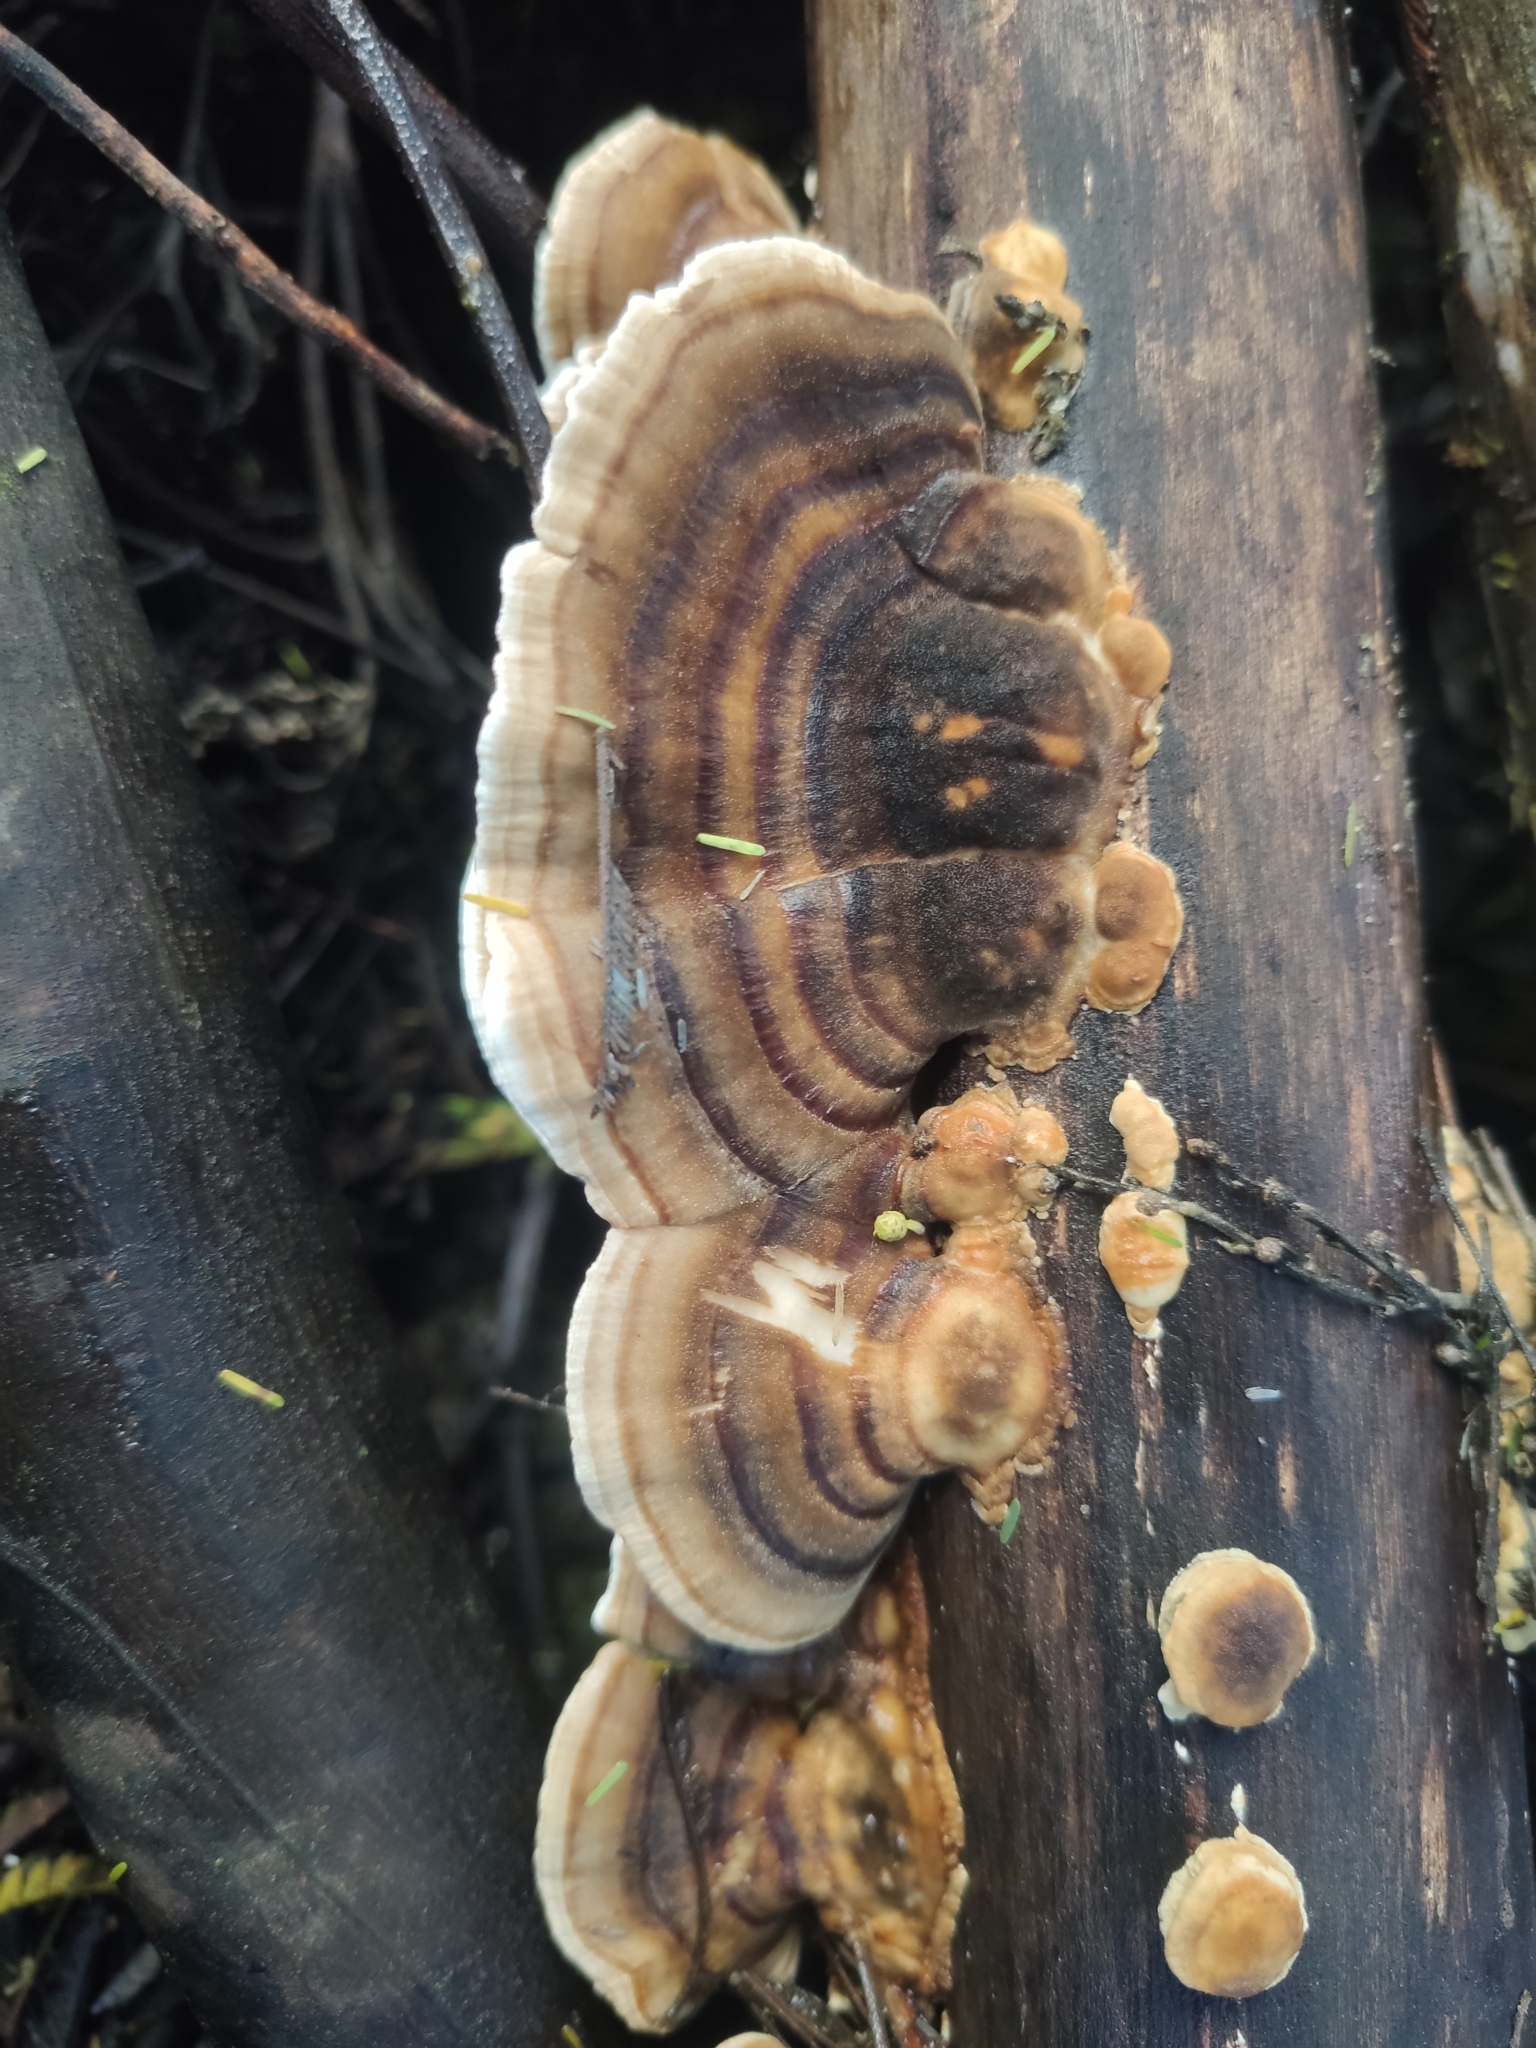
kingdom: Fungi
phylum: Basidiomycota
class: Agaricomycetes
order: Polyporales
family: Polyporaceae
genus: Trametes
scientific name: Trametes versicolor
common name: Turkeytail
